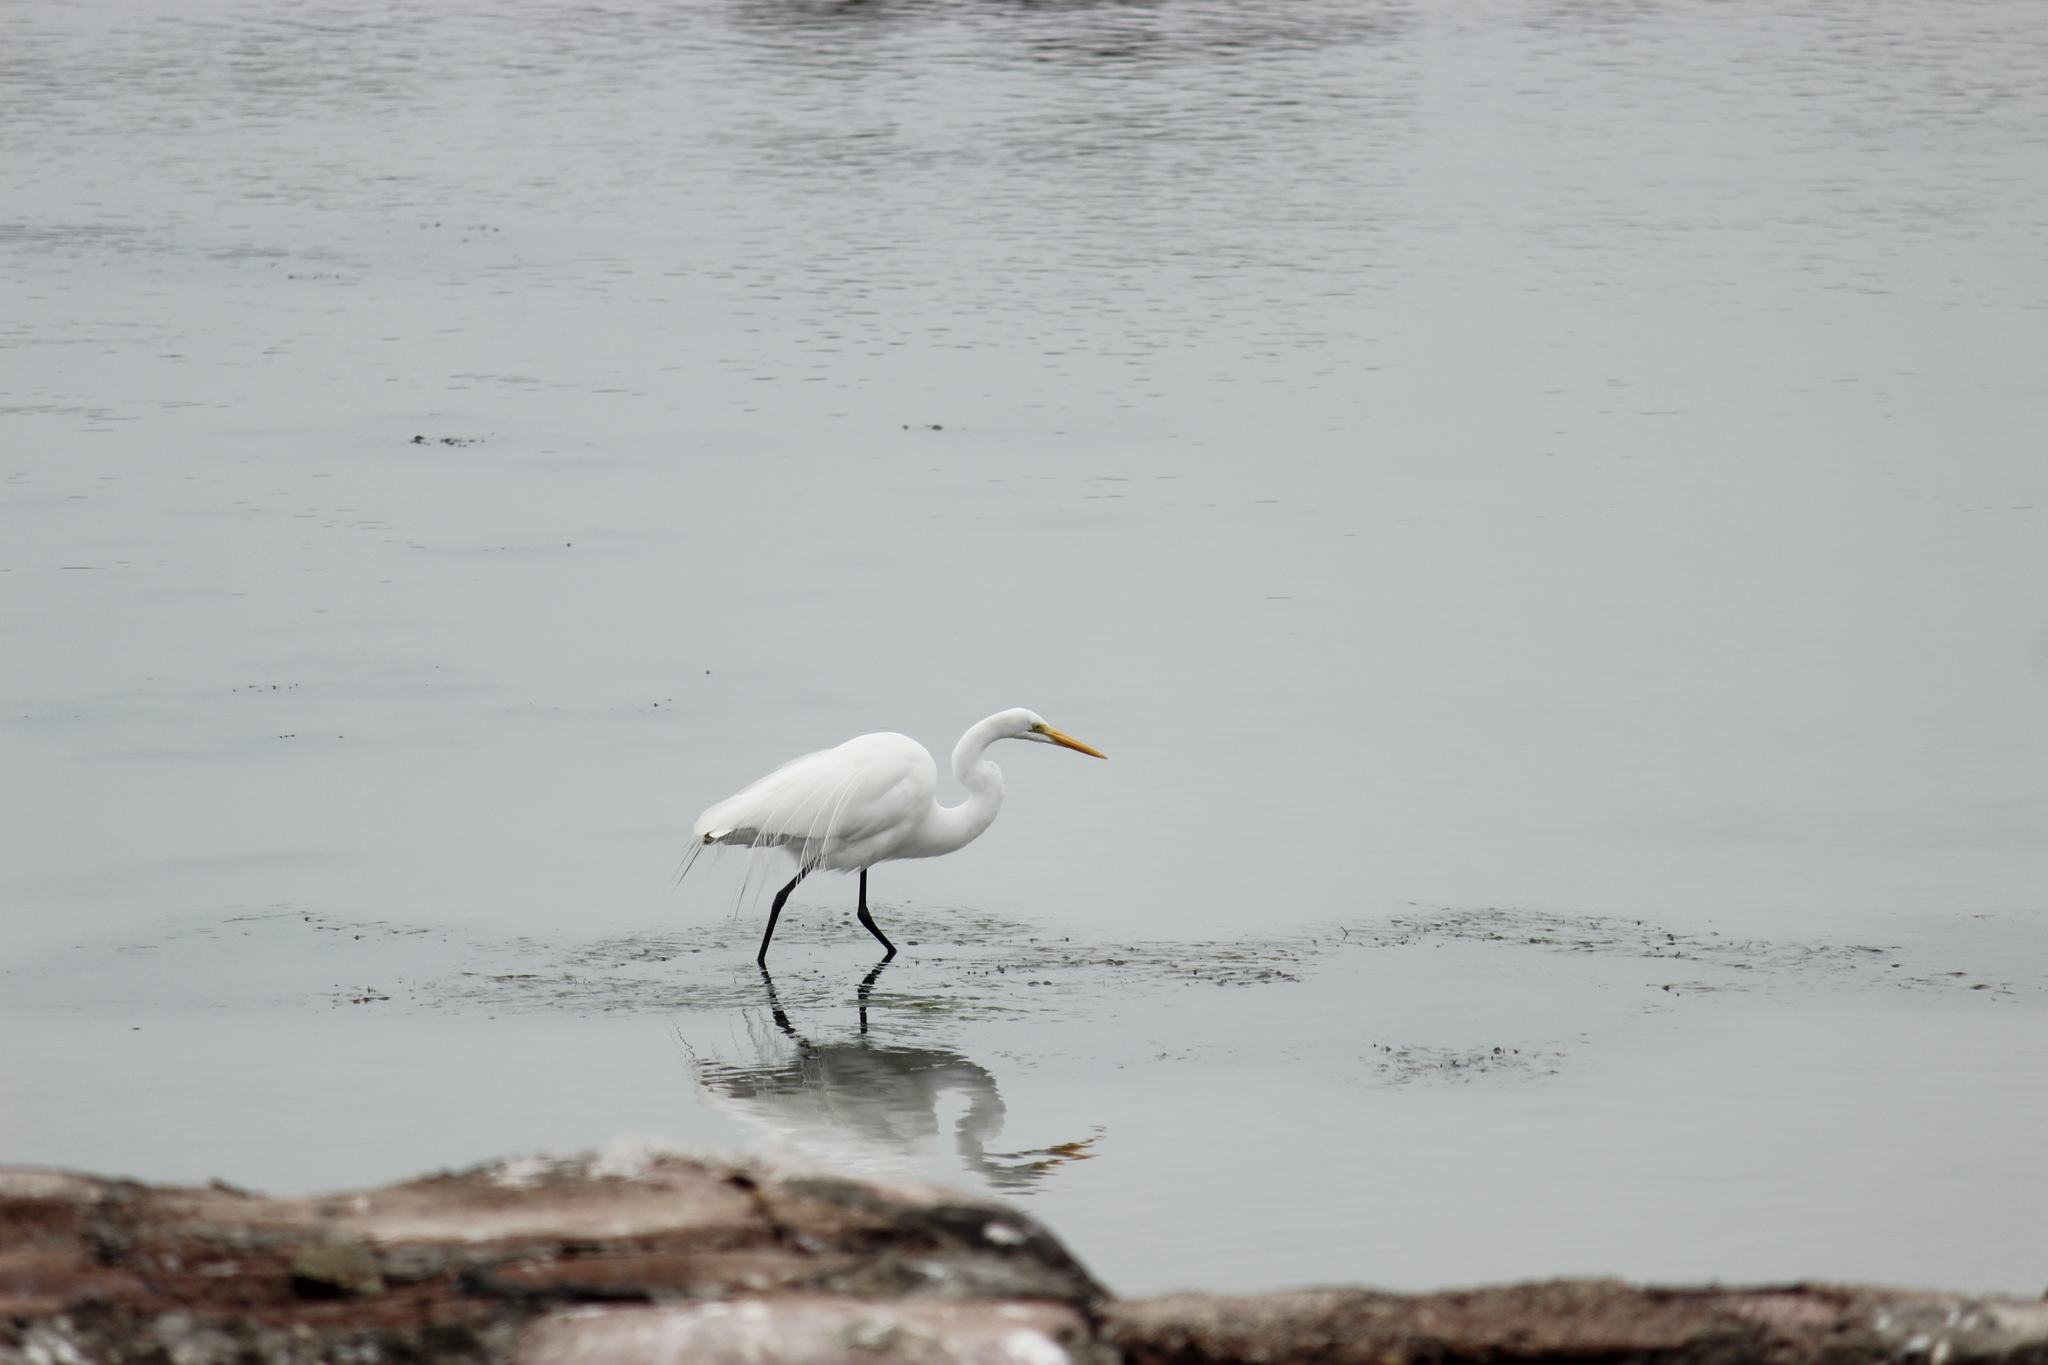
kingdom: Animalia
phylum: Chordata
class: Aves
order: Pelecaniformes
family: Ardeidae
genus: Ardea
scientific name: Ardea alba
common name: Great egret
